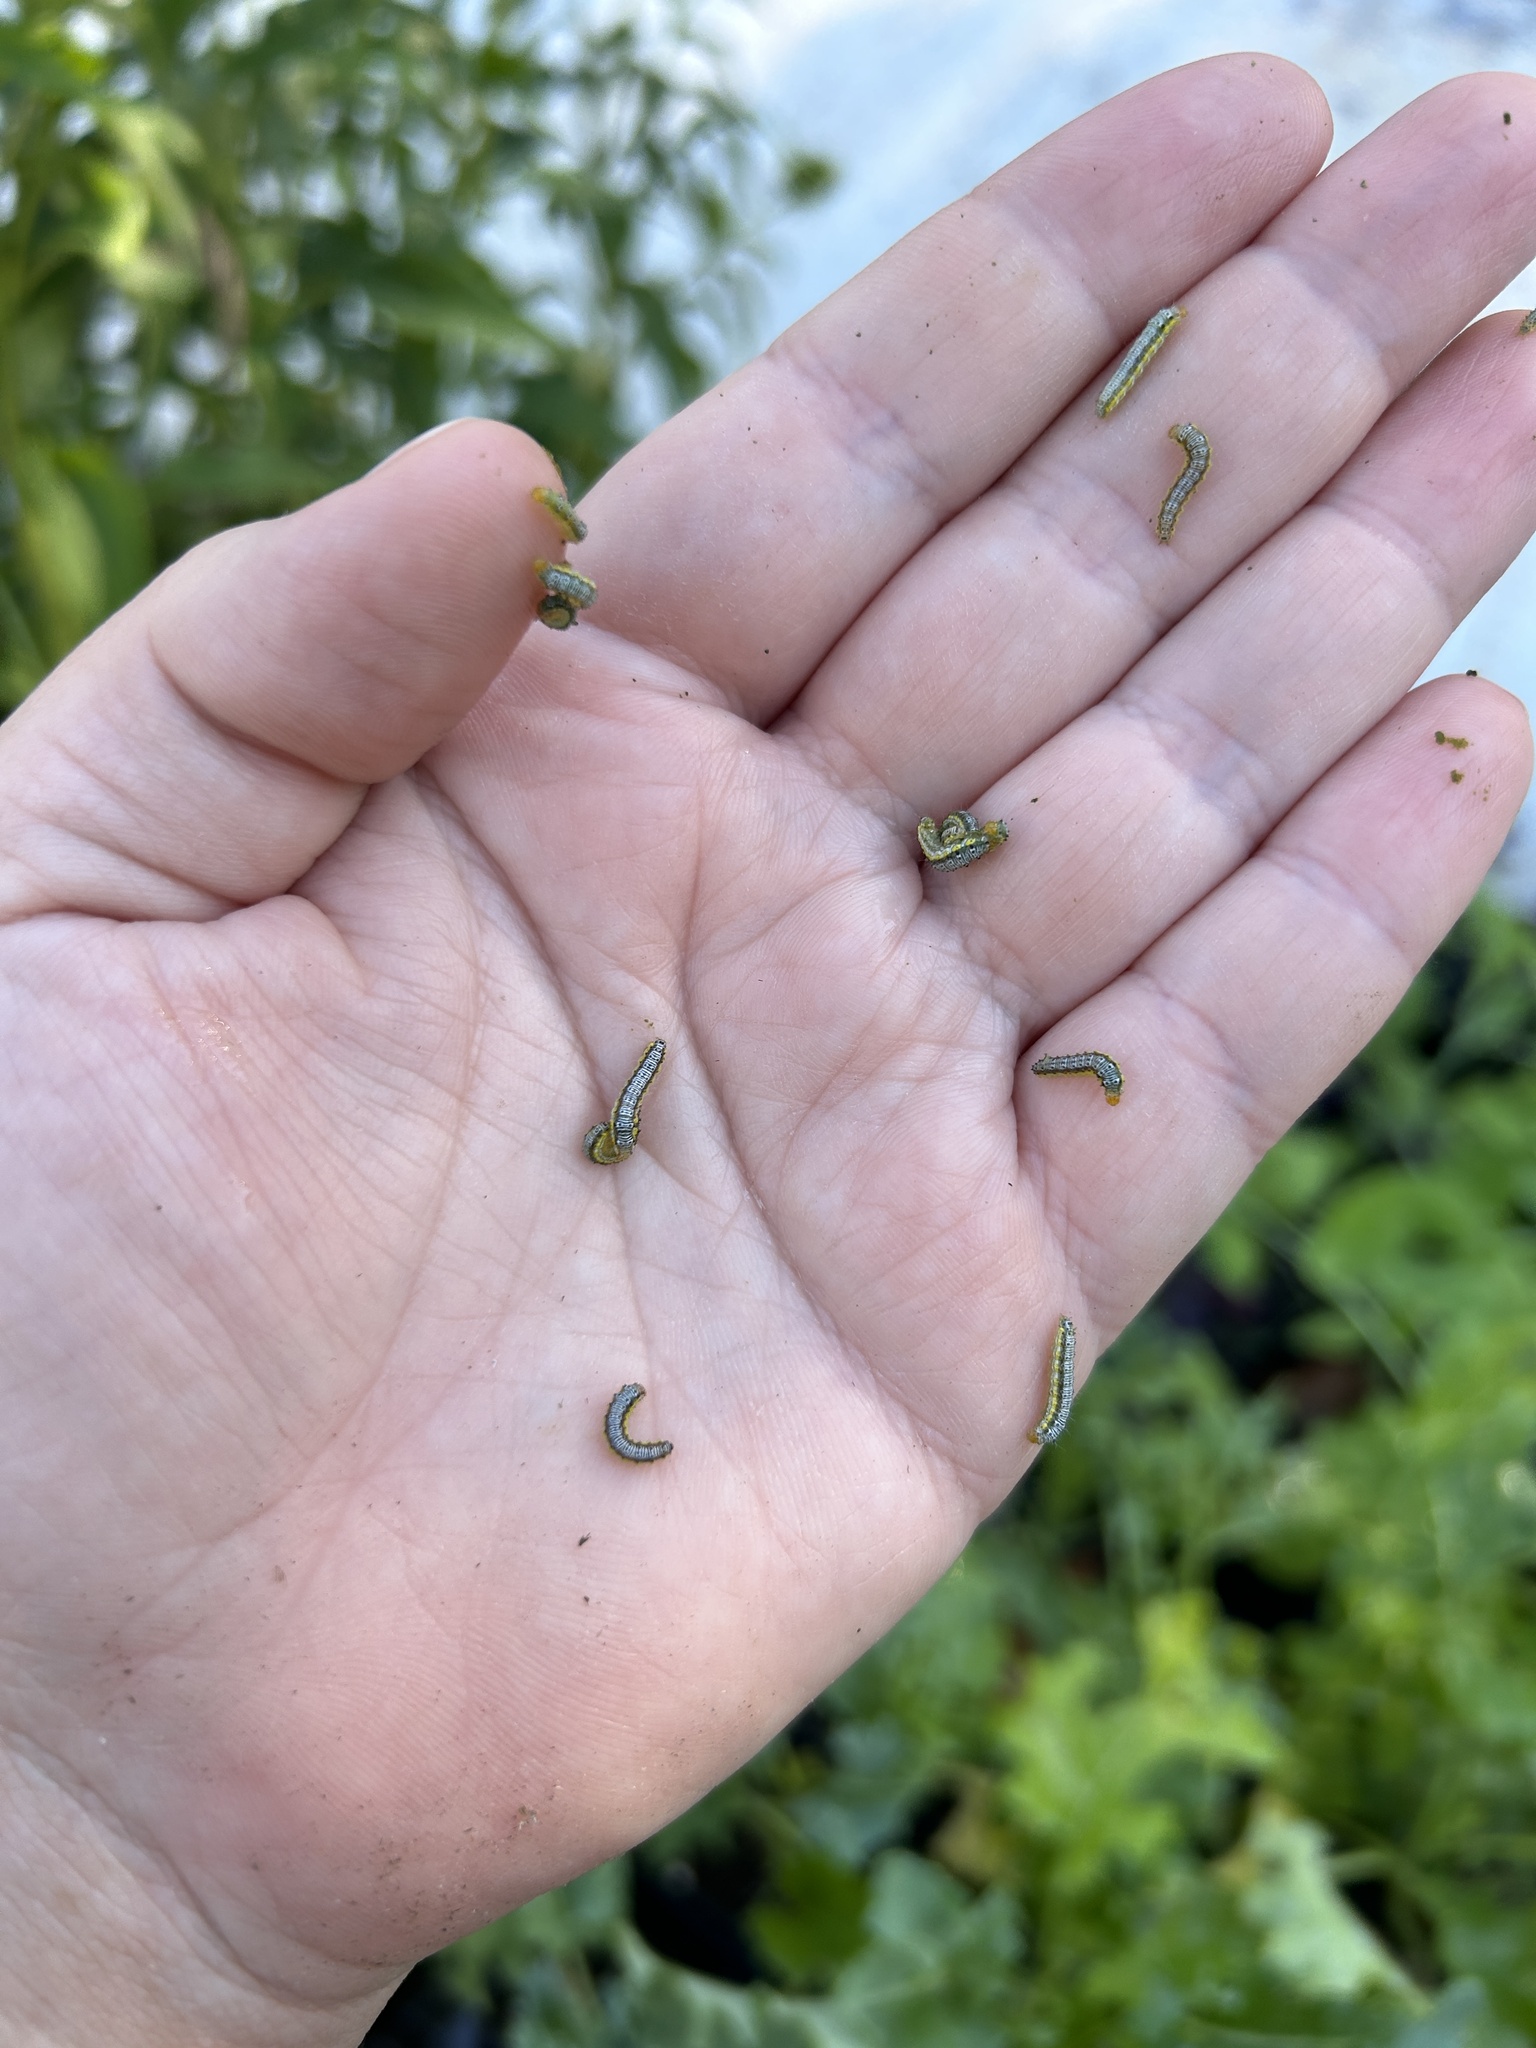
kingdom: Animalia
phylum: Arthropoda
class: Insecta
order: Lepidoptera
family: Crambidae
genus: Evergestis
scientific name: Evergestis rimosalis
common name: Cross-striped cabbageworm moth
